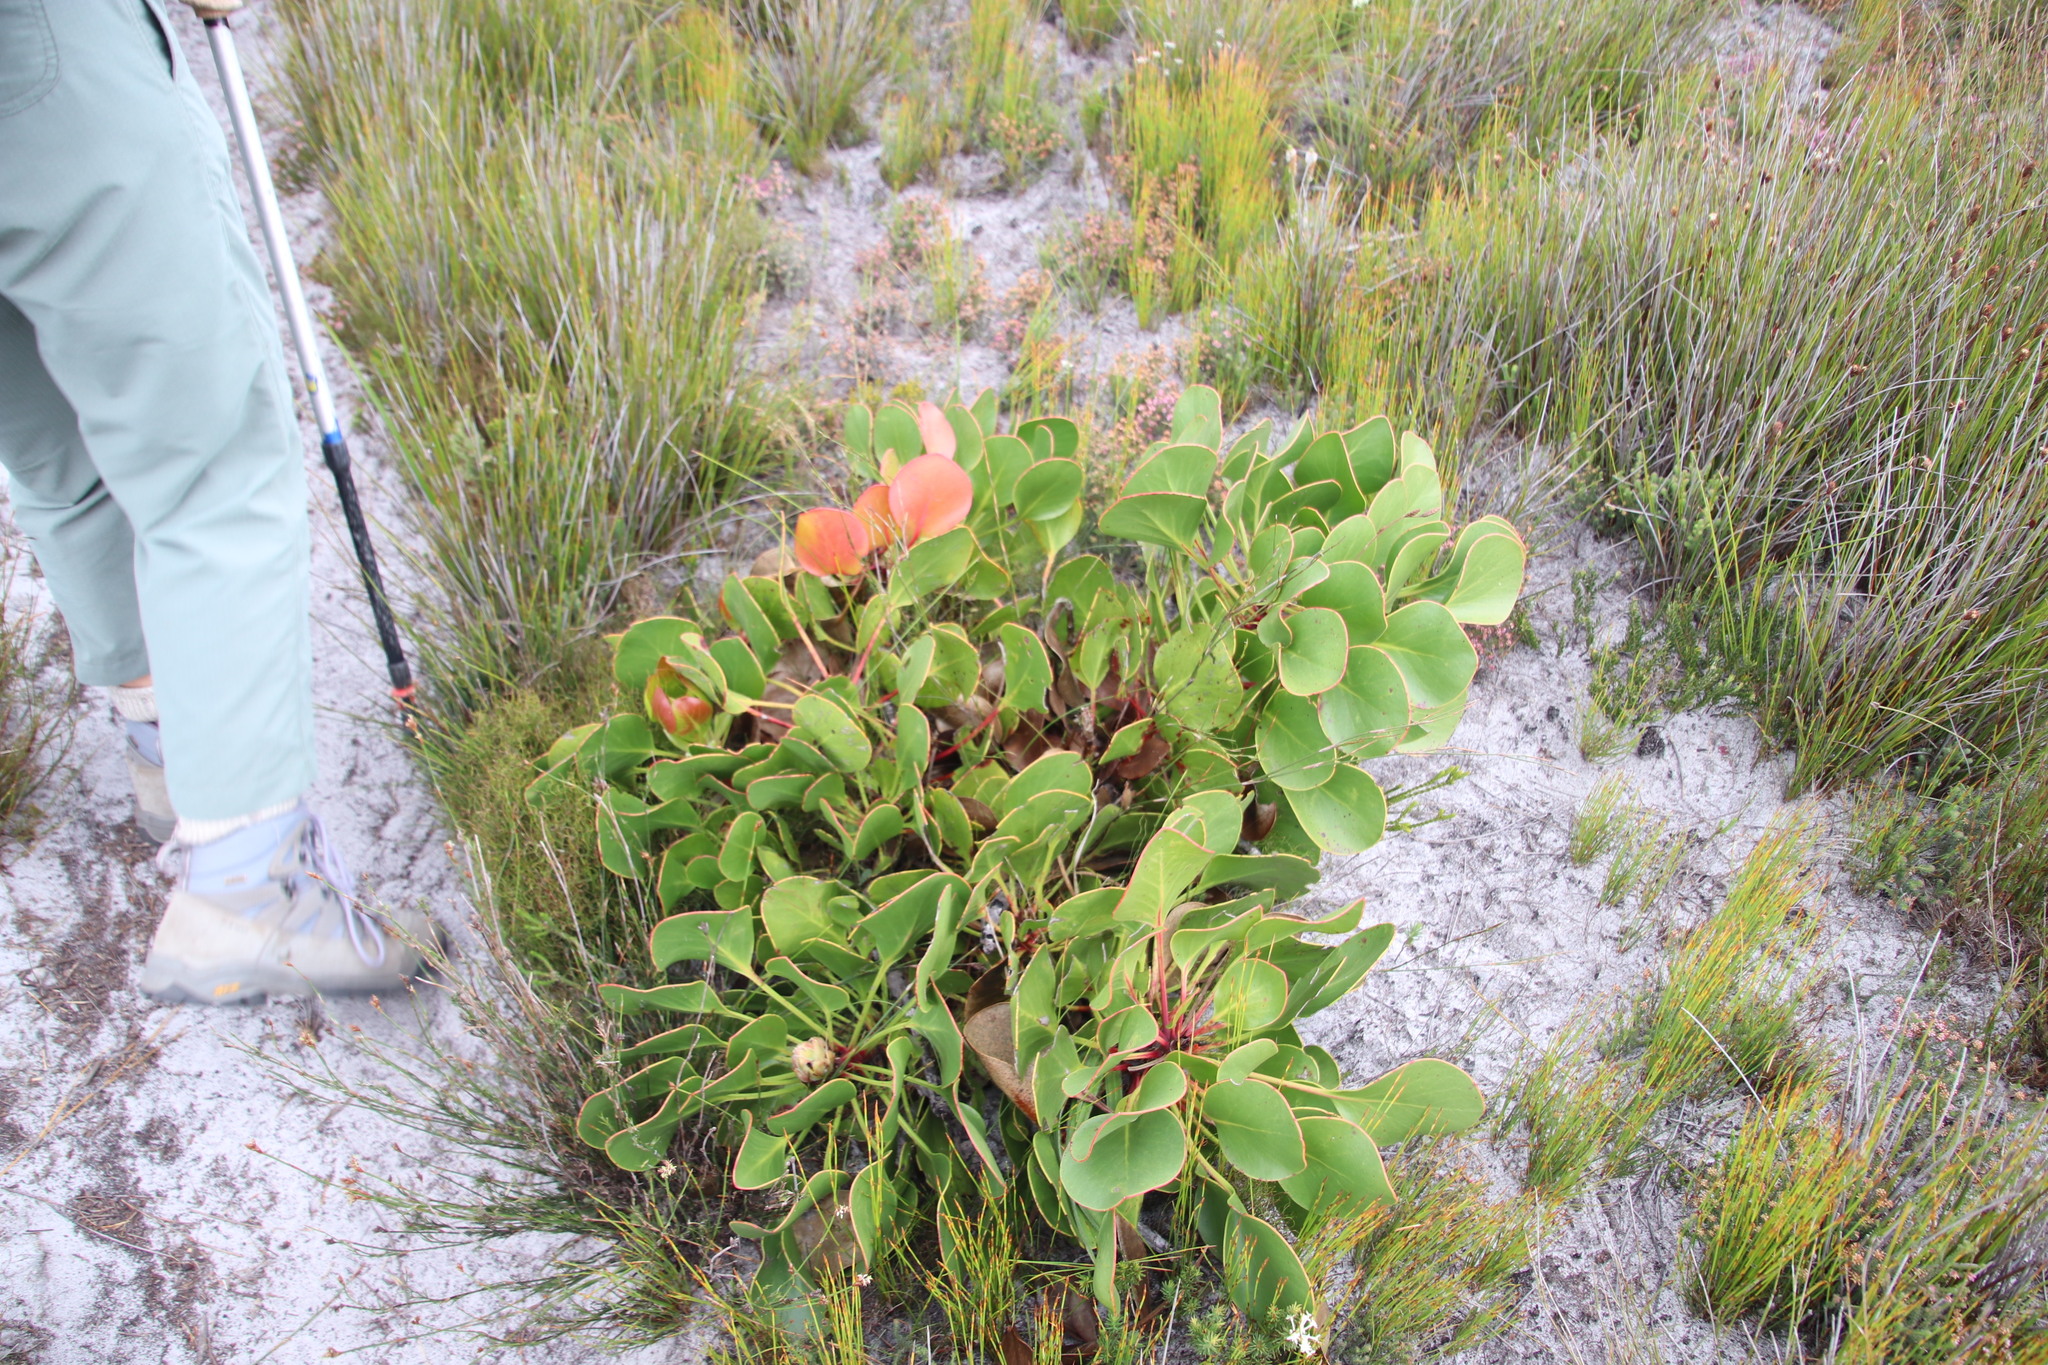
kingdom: Plantae
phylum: Tracheophyta
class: Magnoliopsida
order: Proteales
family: Proteaceae
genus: Protea
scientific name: Protea cynaroides
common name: King protea
